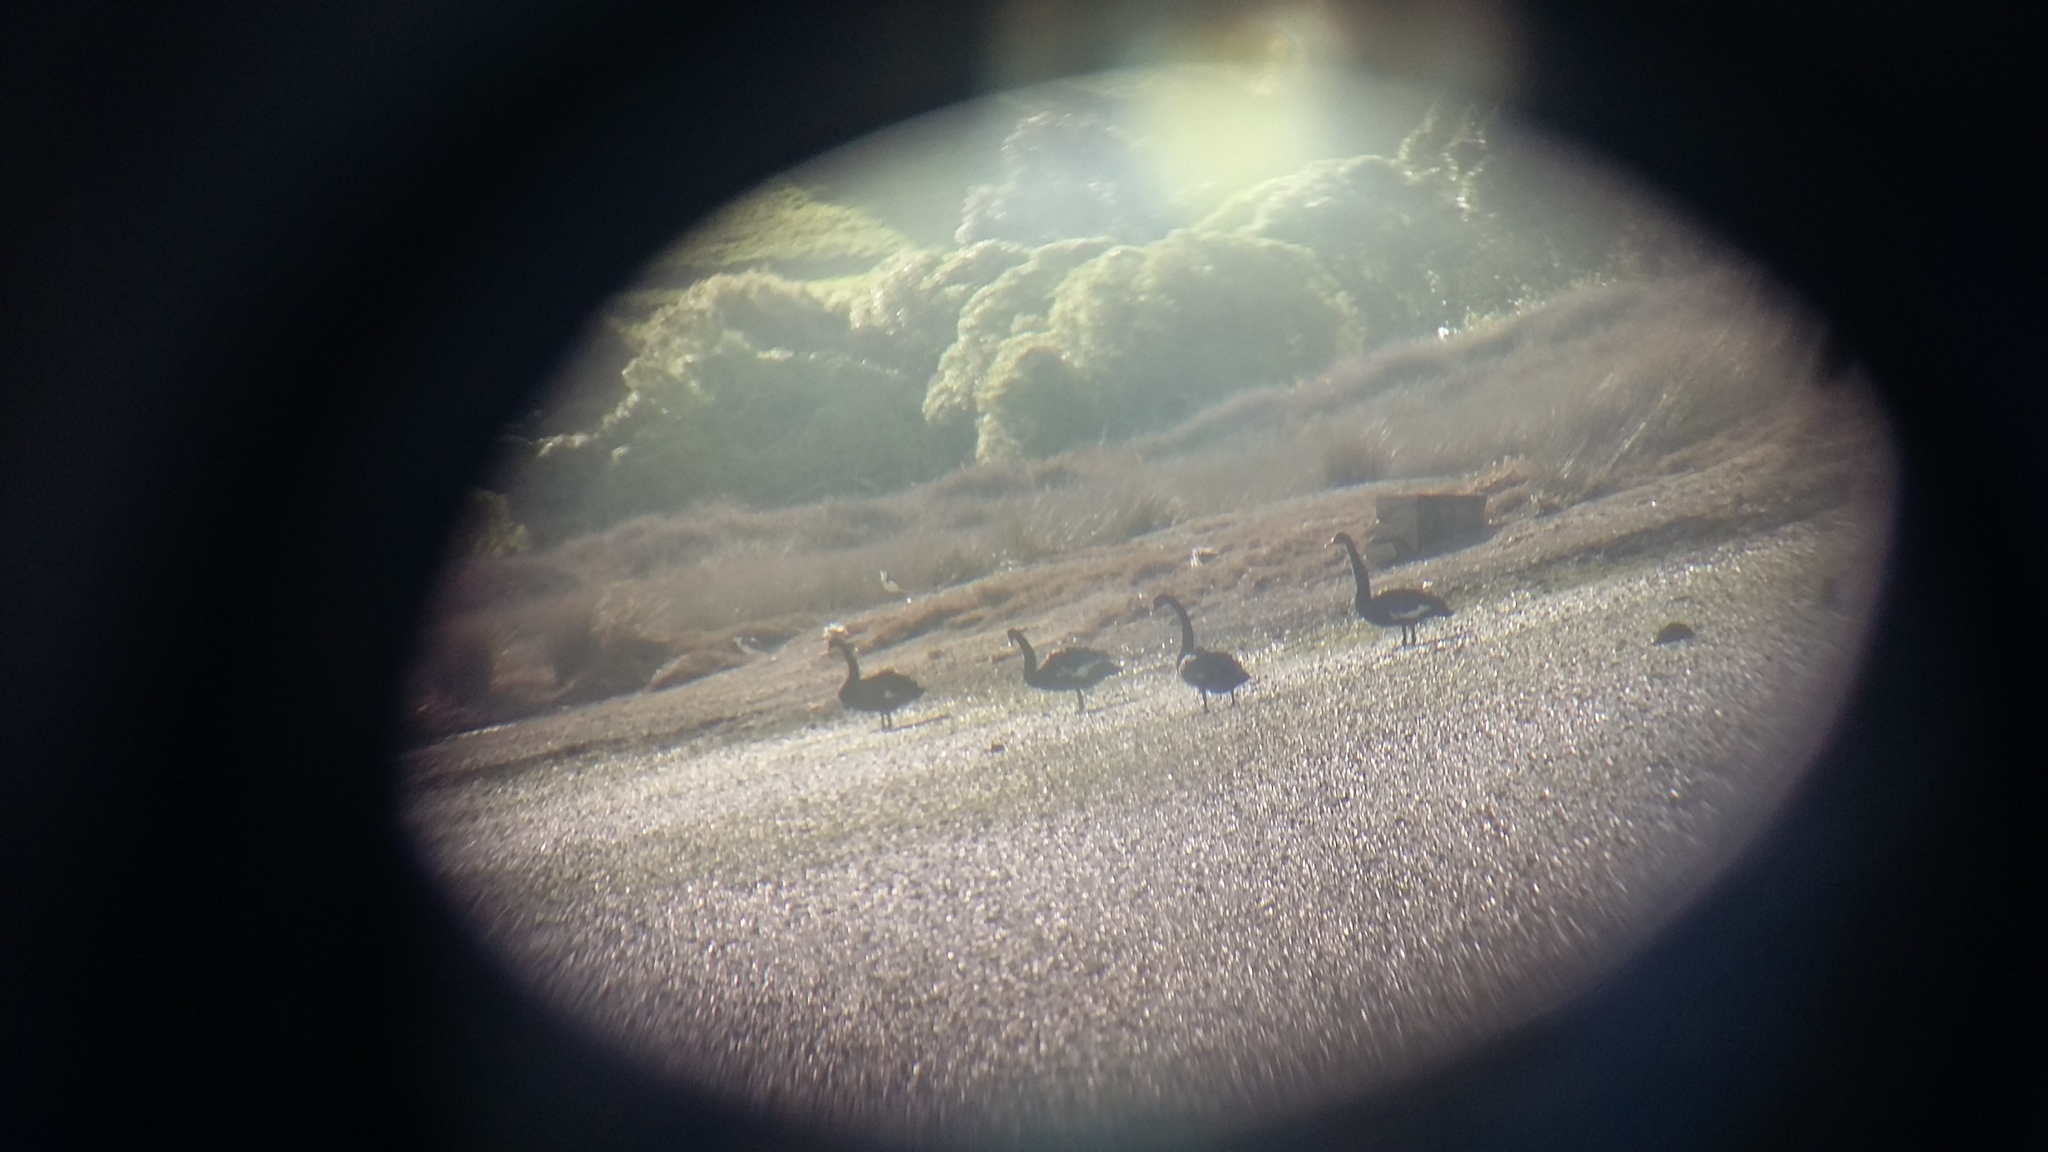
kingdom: Animalia
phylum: Chordata
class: Aves
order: Anseriformes
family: Anatidae
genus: Cygnus
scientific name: Cygnus atratus
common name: Black swan
